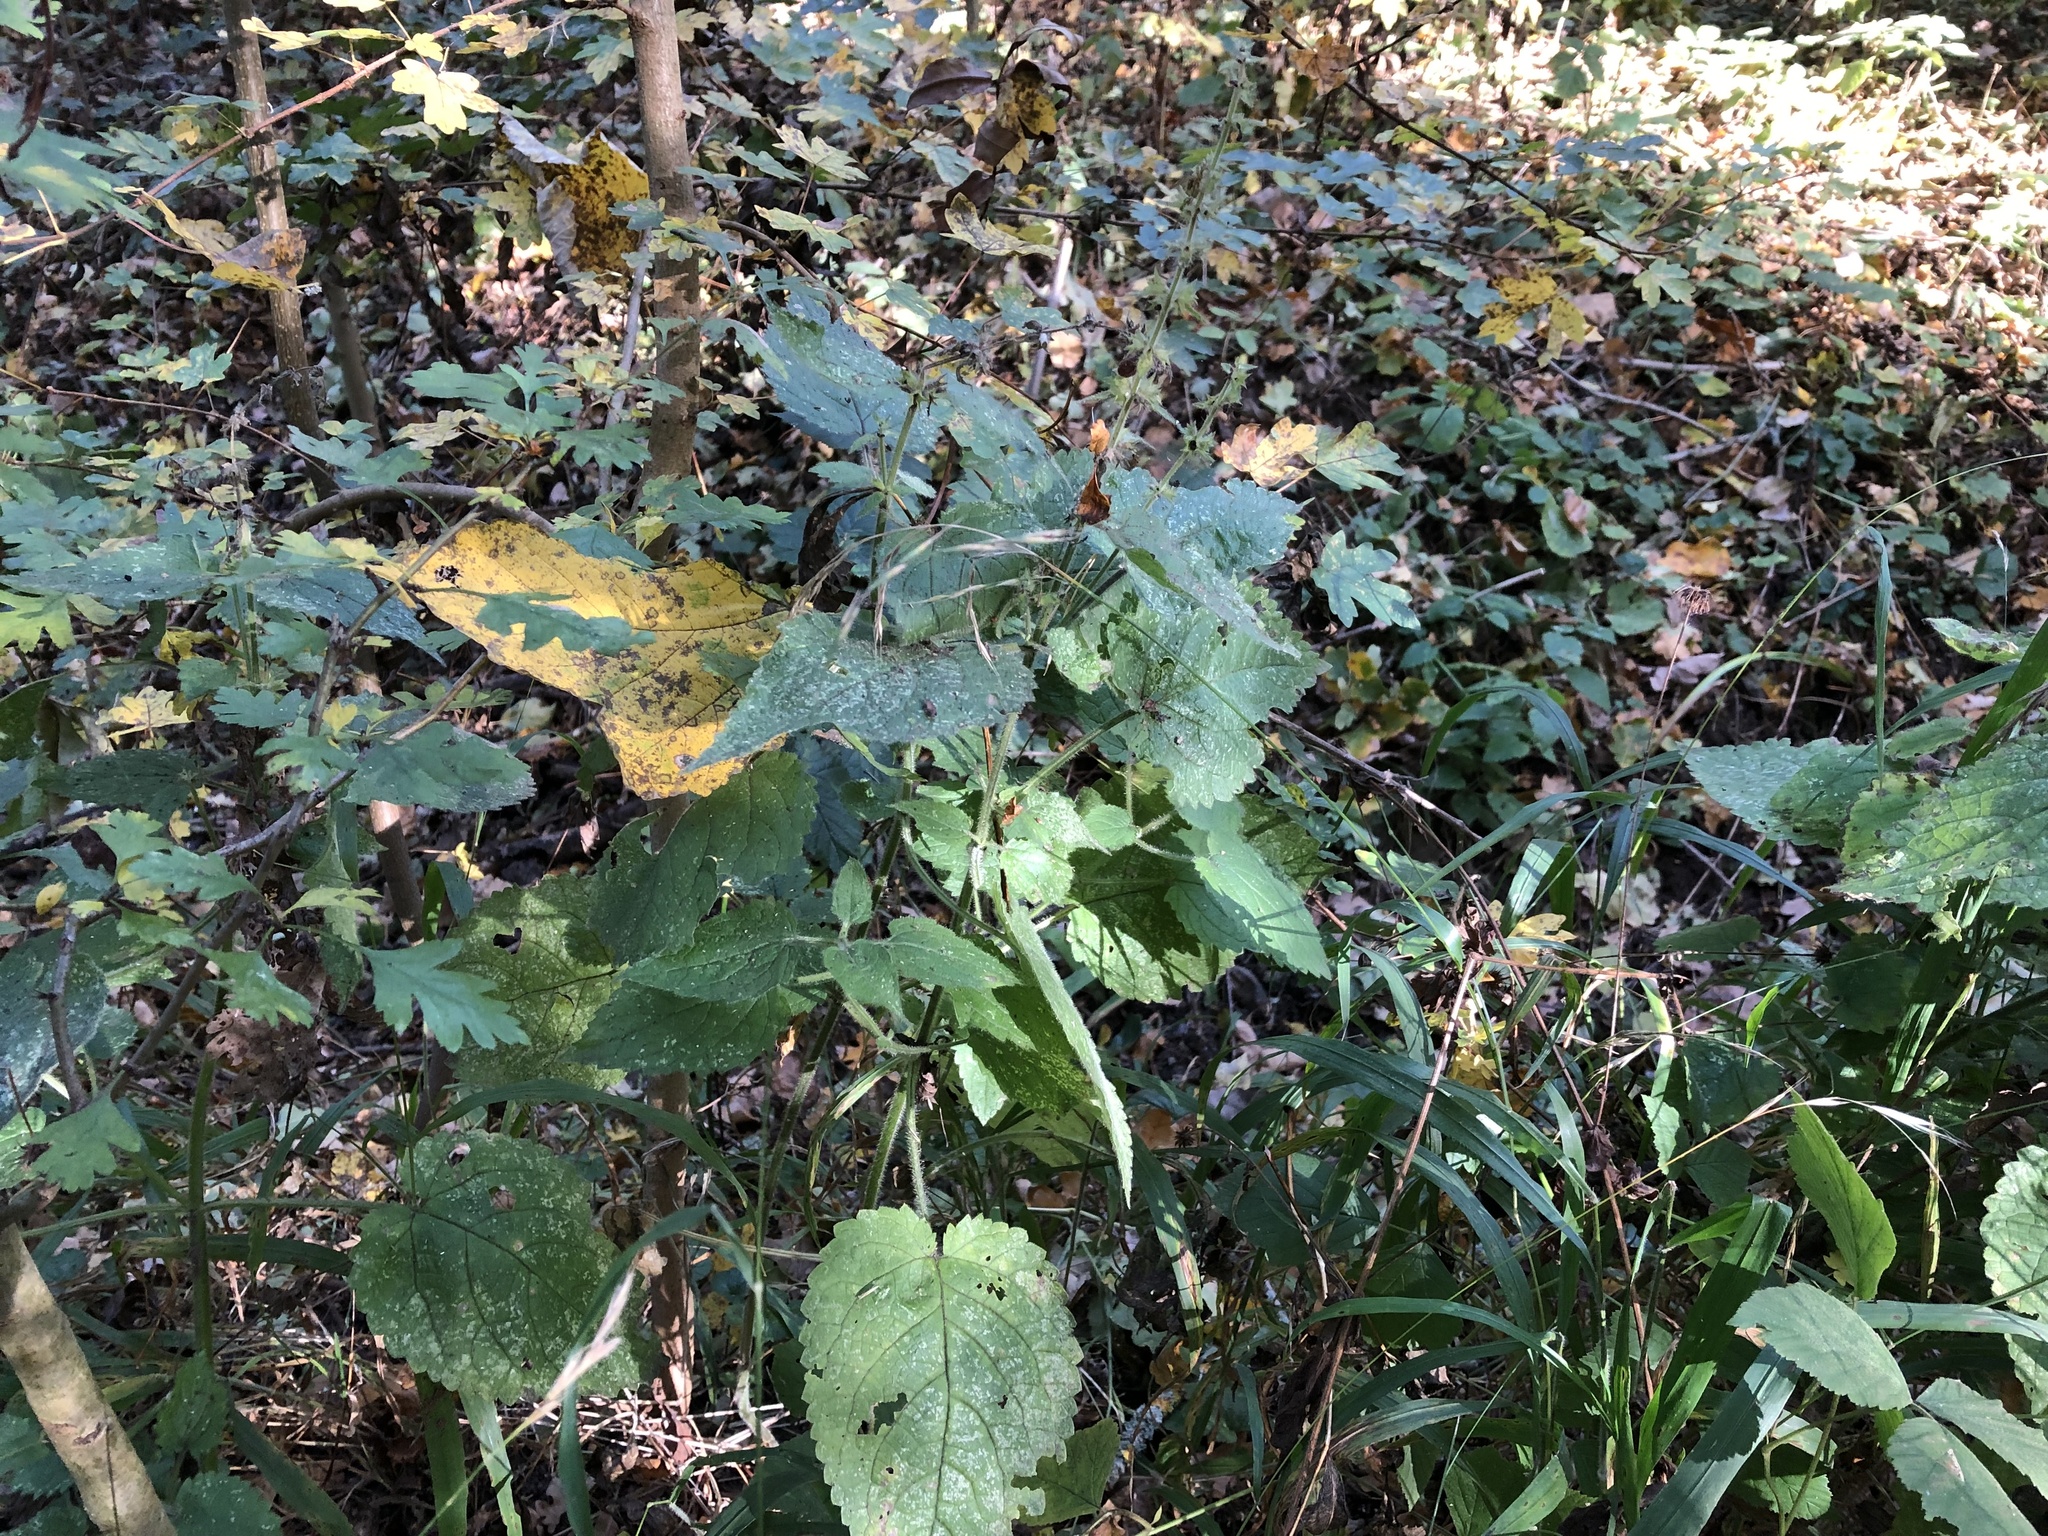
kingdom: Plantae
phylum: Tracheophyta
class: Magnoliopsida
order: Lamiales
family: Lamiaceae
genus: Stachys
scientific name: Stachys sylvatica
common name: Hedge woundwort
